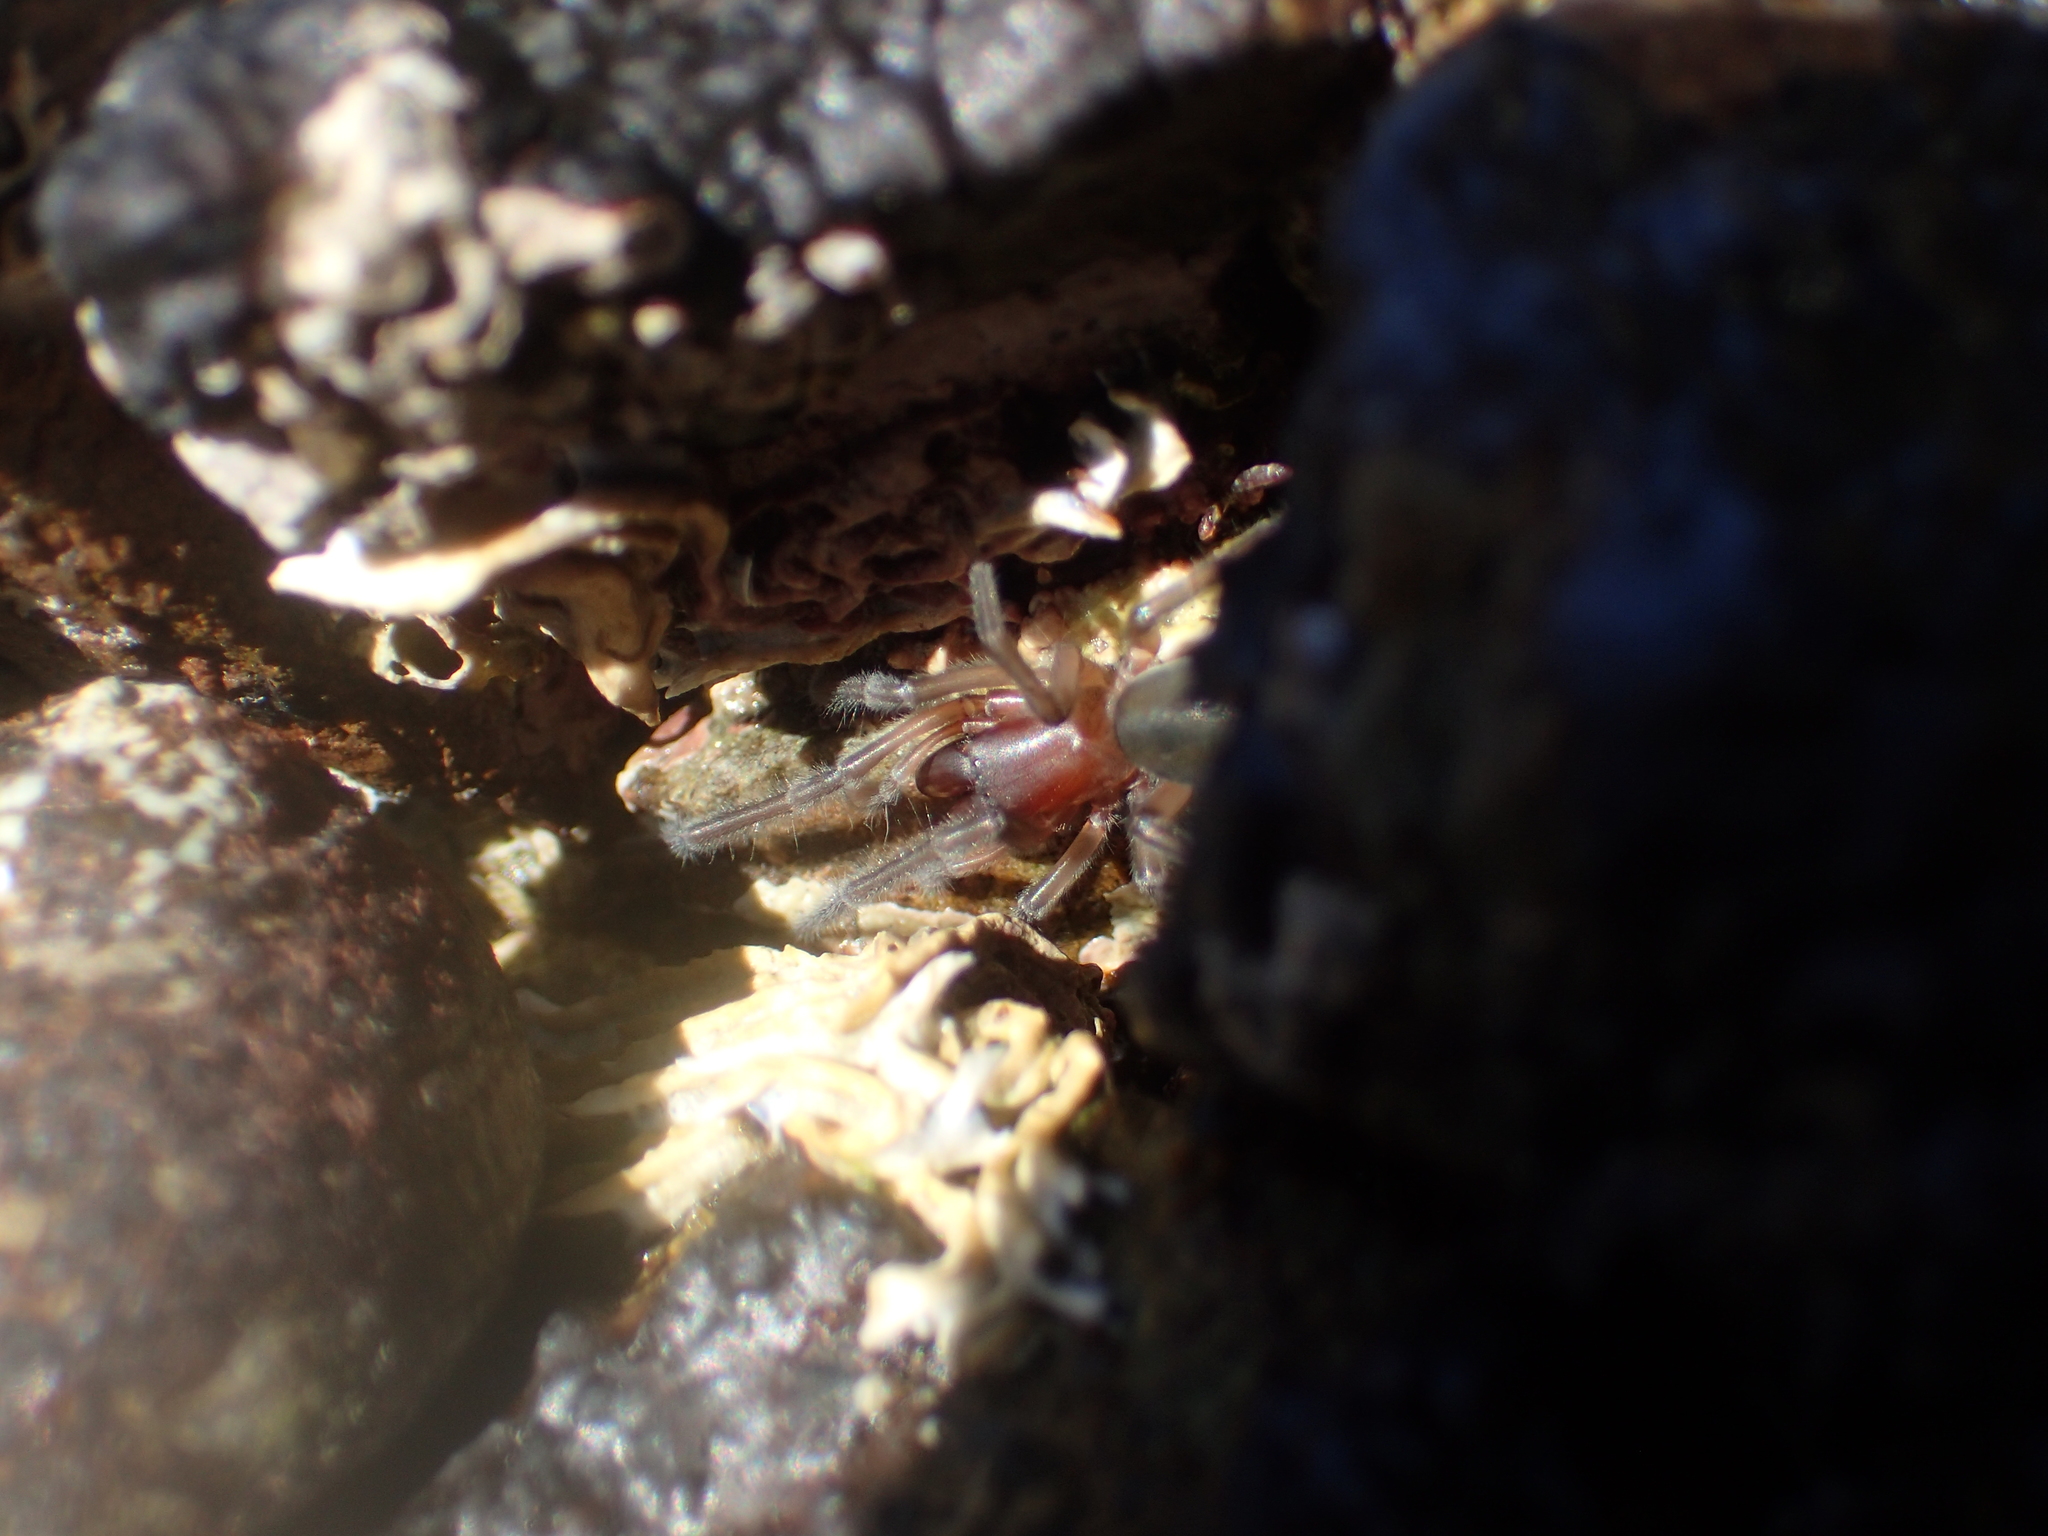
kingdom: Animalia
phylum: Arthropoda
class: Arachnida
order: Araneae
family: Desidae
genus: Desis
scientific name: Desis marina
